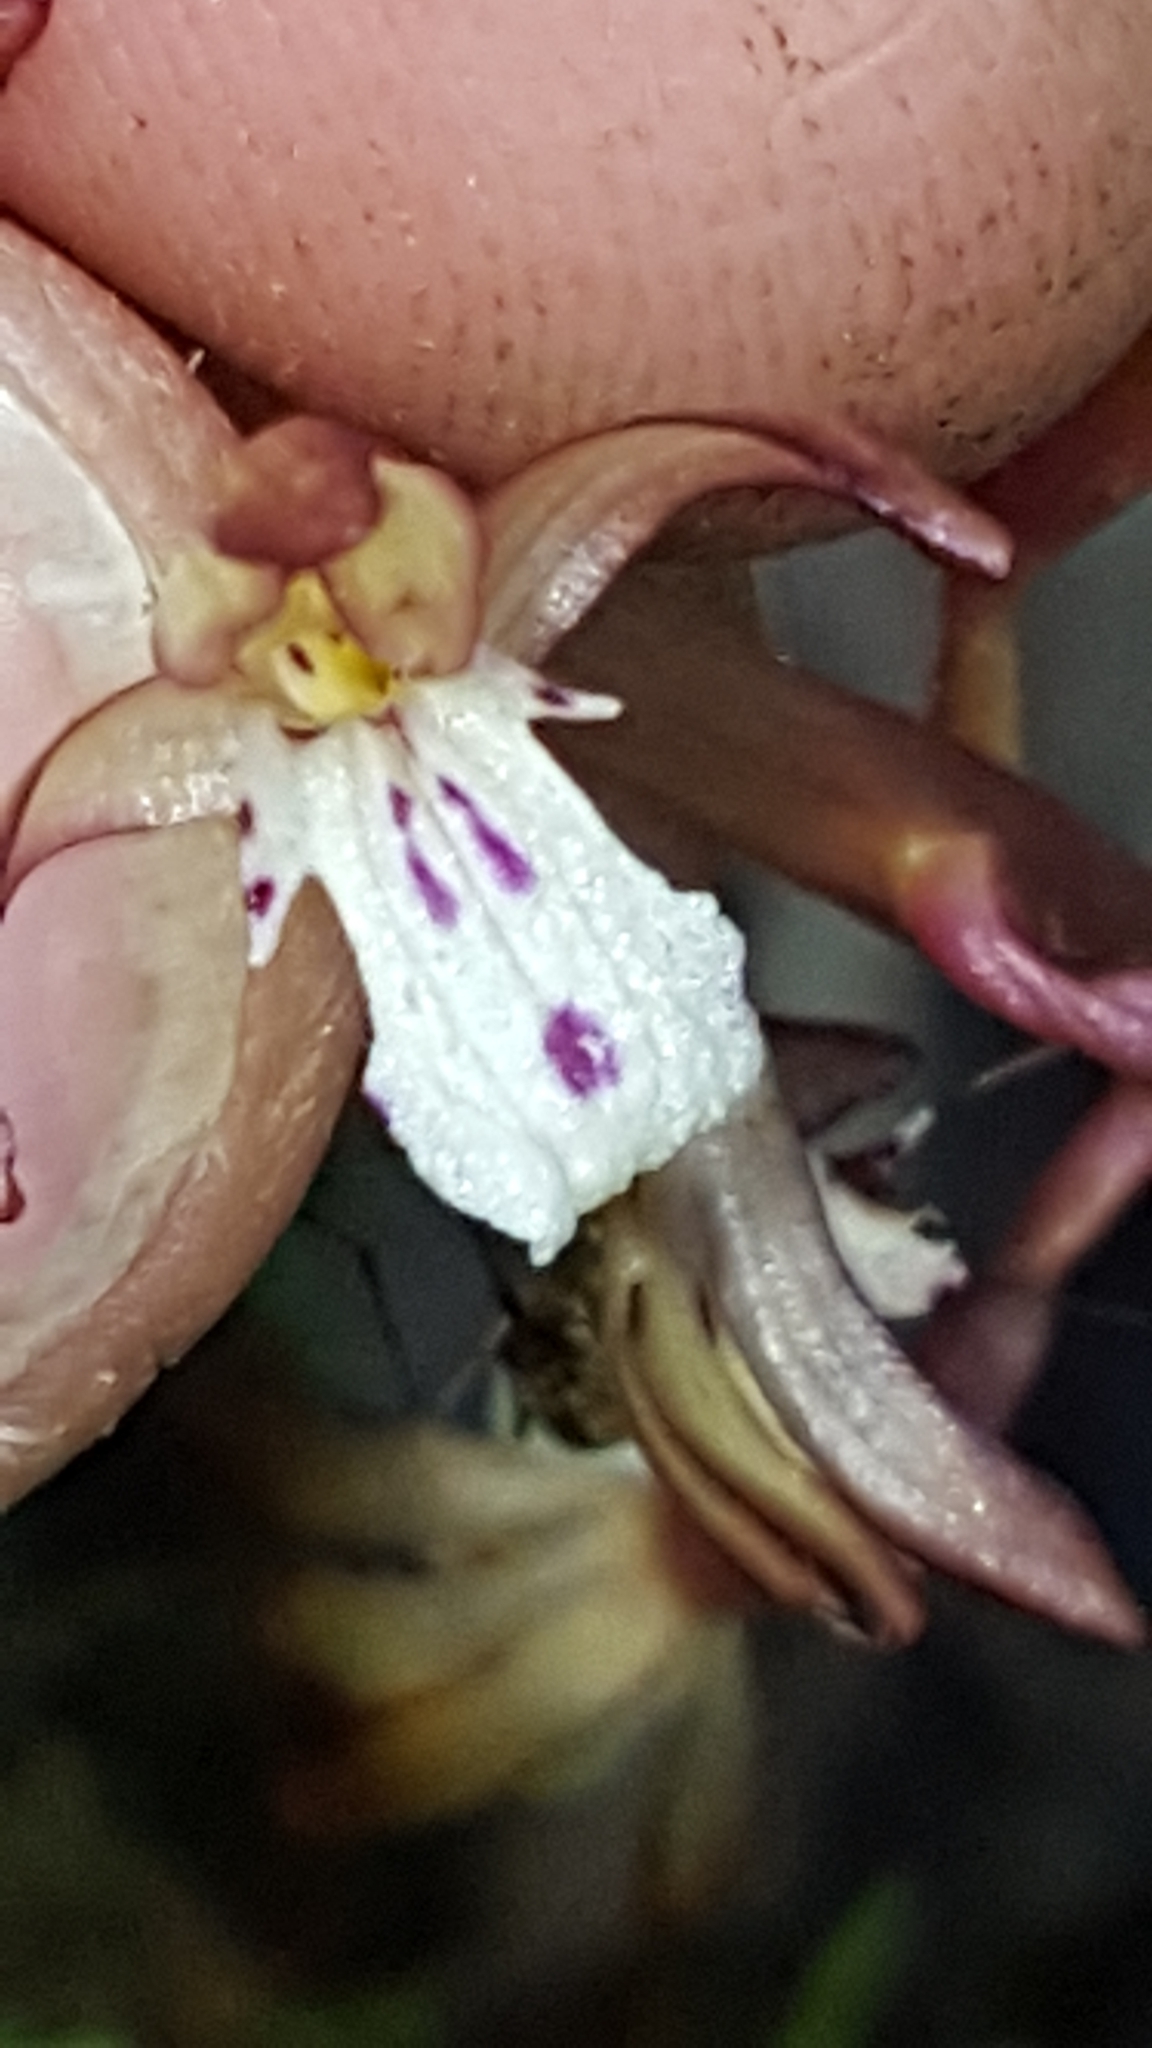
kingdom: Plantae
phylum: Tracheophyta
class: Liliopsida
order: Asparagales
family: Orchidaceae
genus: Corallorhiza
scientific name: Corallorhiza maculata
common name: Spotted coralroot
